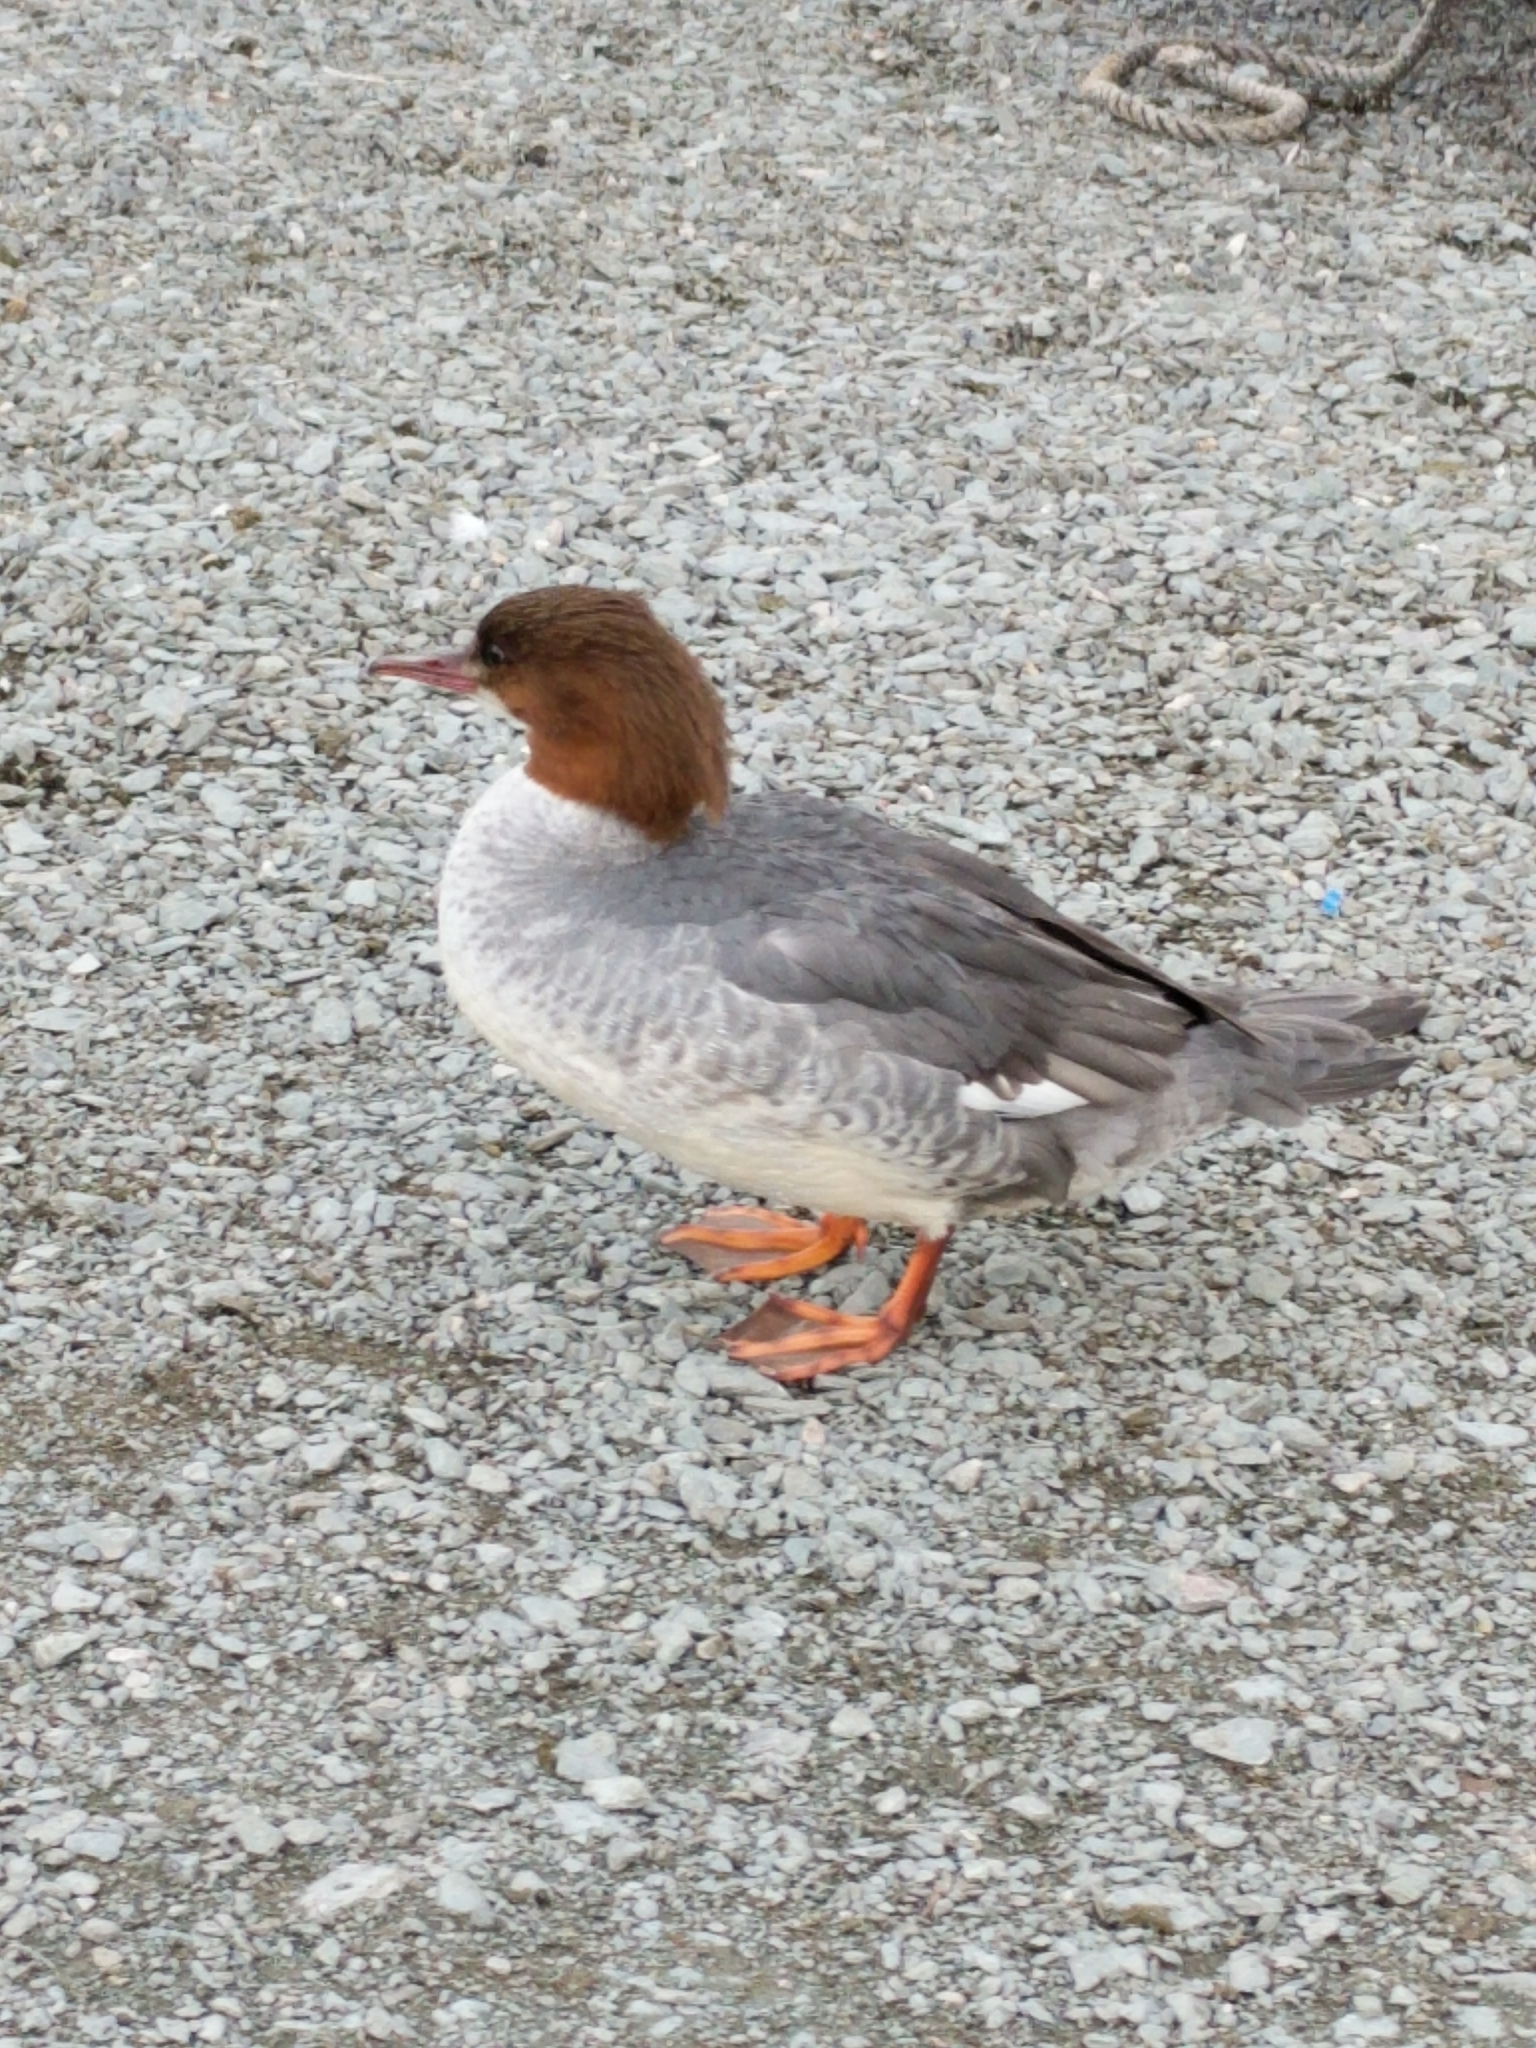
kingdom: Animalia
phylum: Chordata
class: Aves
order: Anseriformes
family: Anatidae
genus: Mergus
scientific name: Mergus merganser
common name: Common merganser
